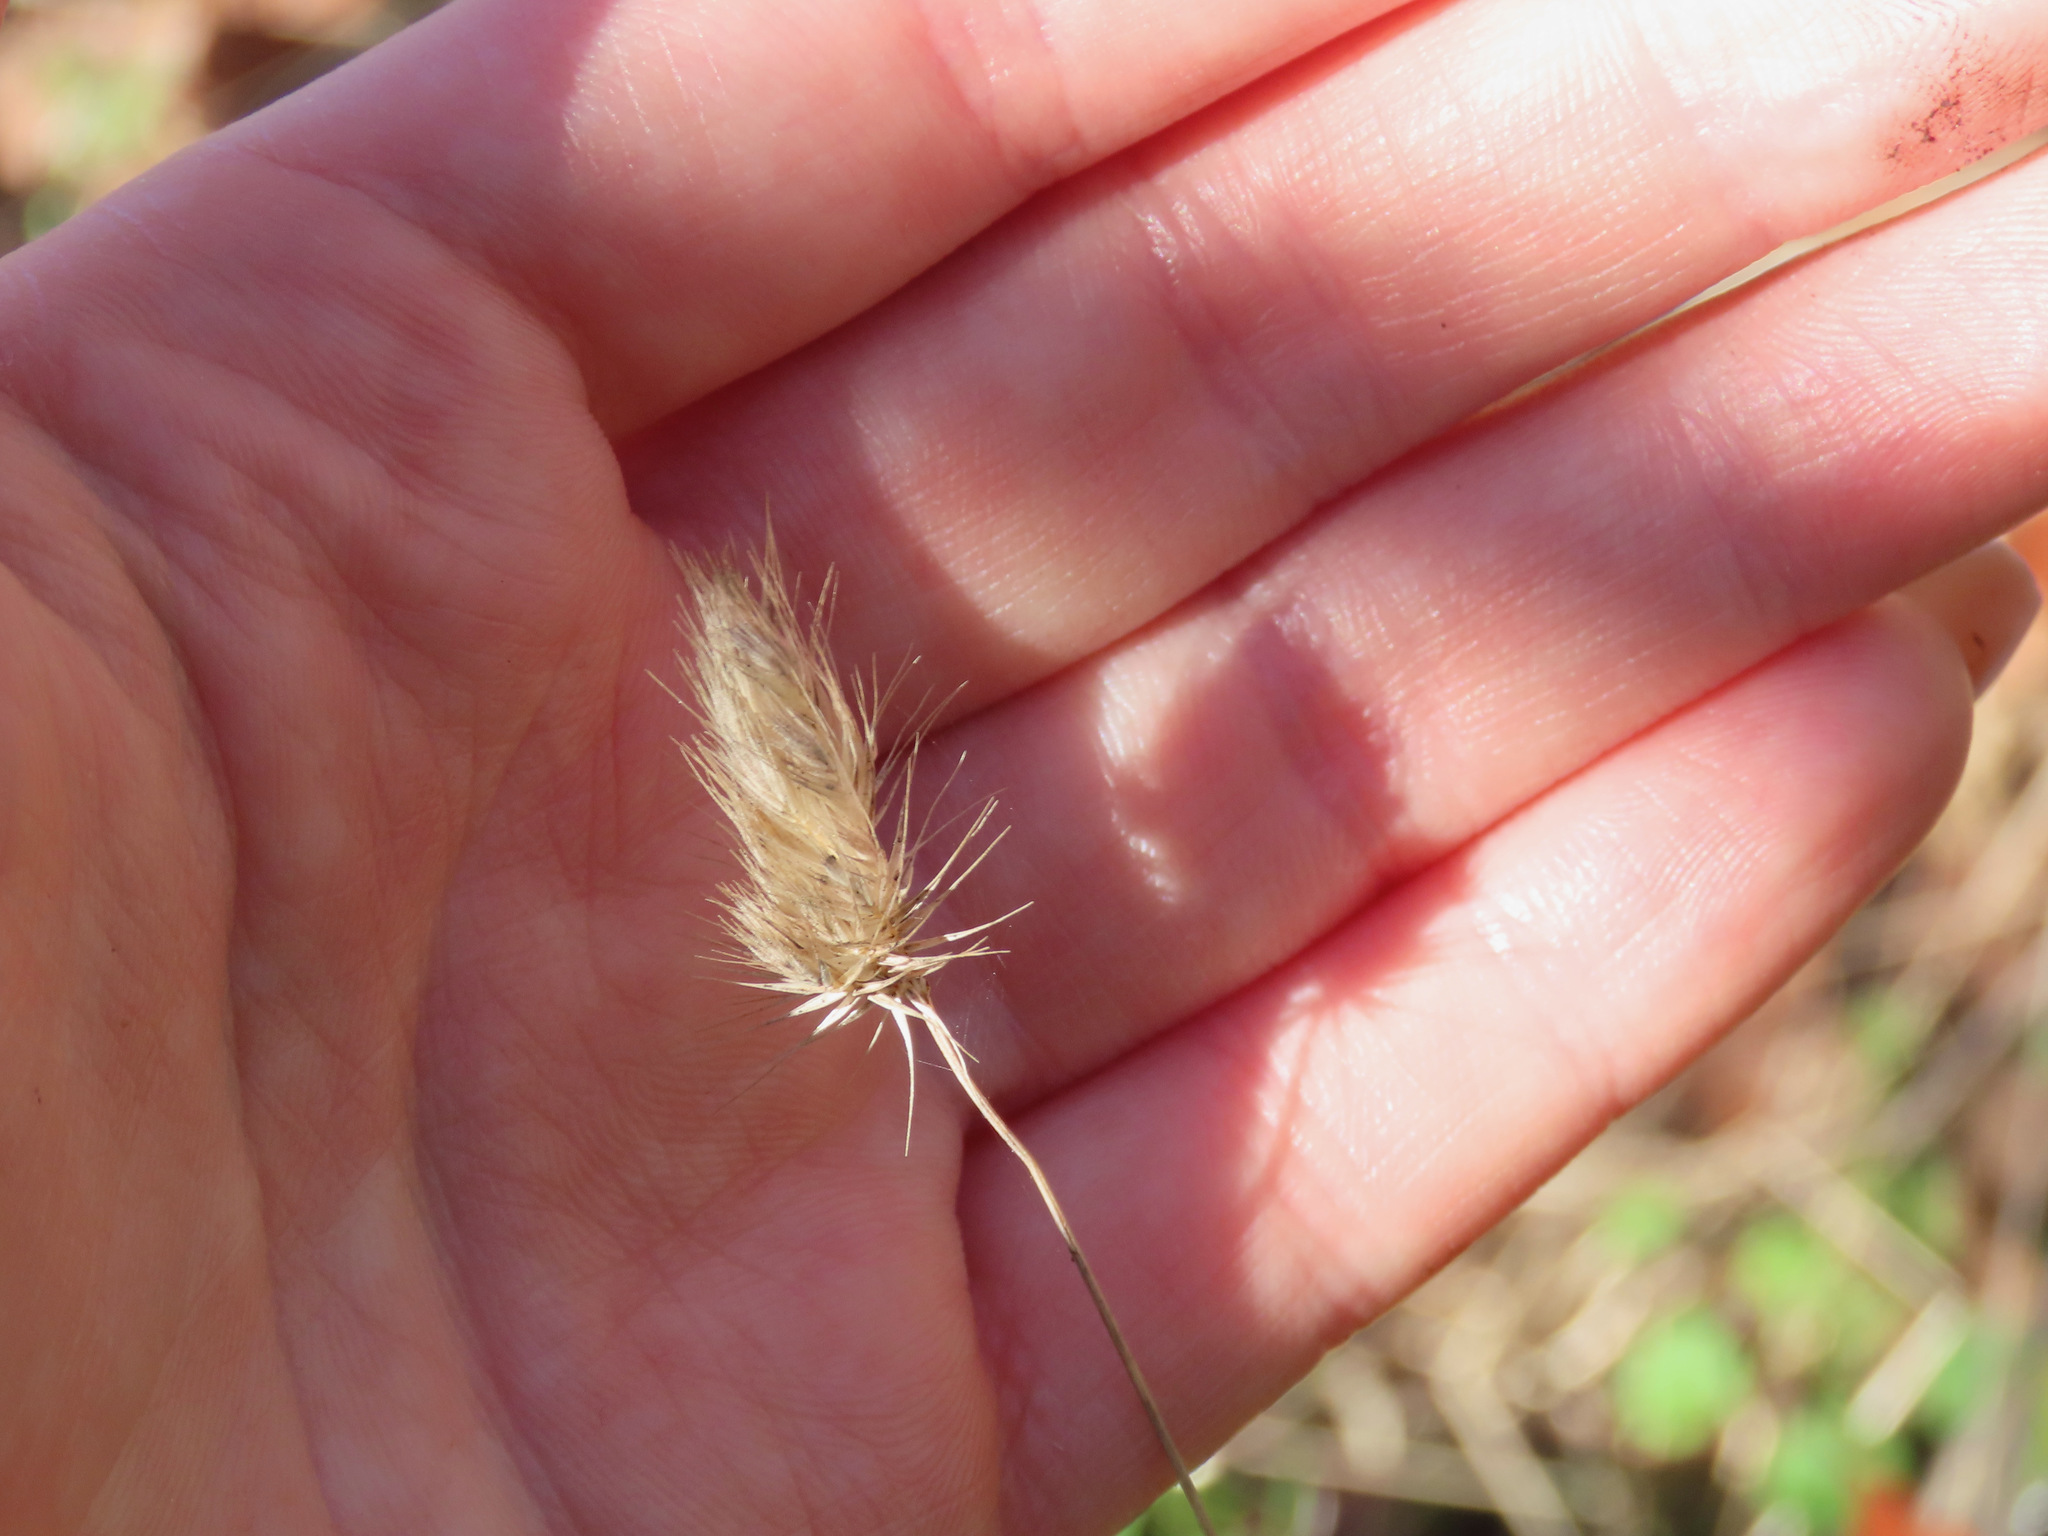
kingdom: Plantae
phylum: Tracheophyta
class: Liliopsida
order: Poales
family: Poaceae
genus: Cynosurus
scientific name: Cynosurus echinatus
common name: Rough dog's-tail
